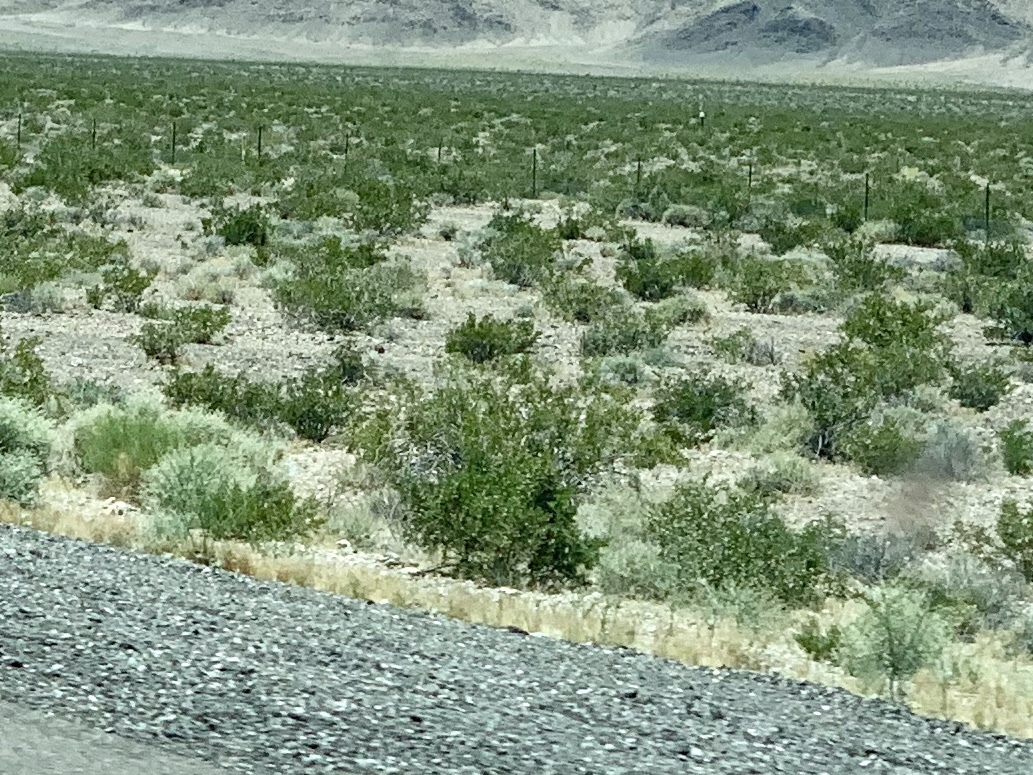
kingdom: Plantae
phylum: Tracheophyta
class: Magnoliopsida
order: Zygophyllales
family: Zygophyllaceae
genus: Larrea
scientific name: Larrea tridentata
